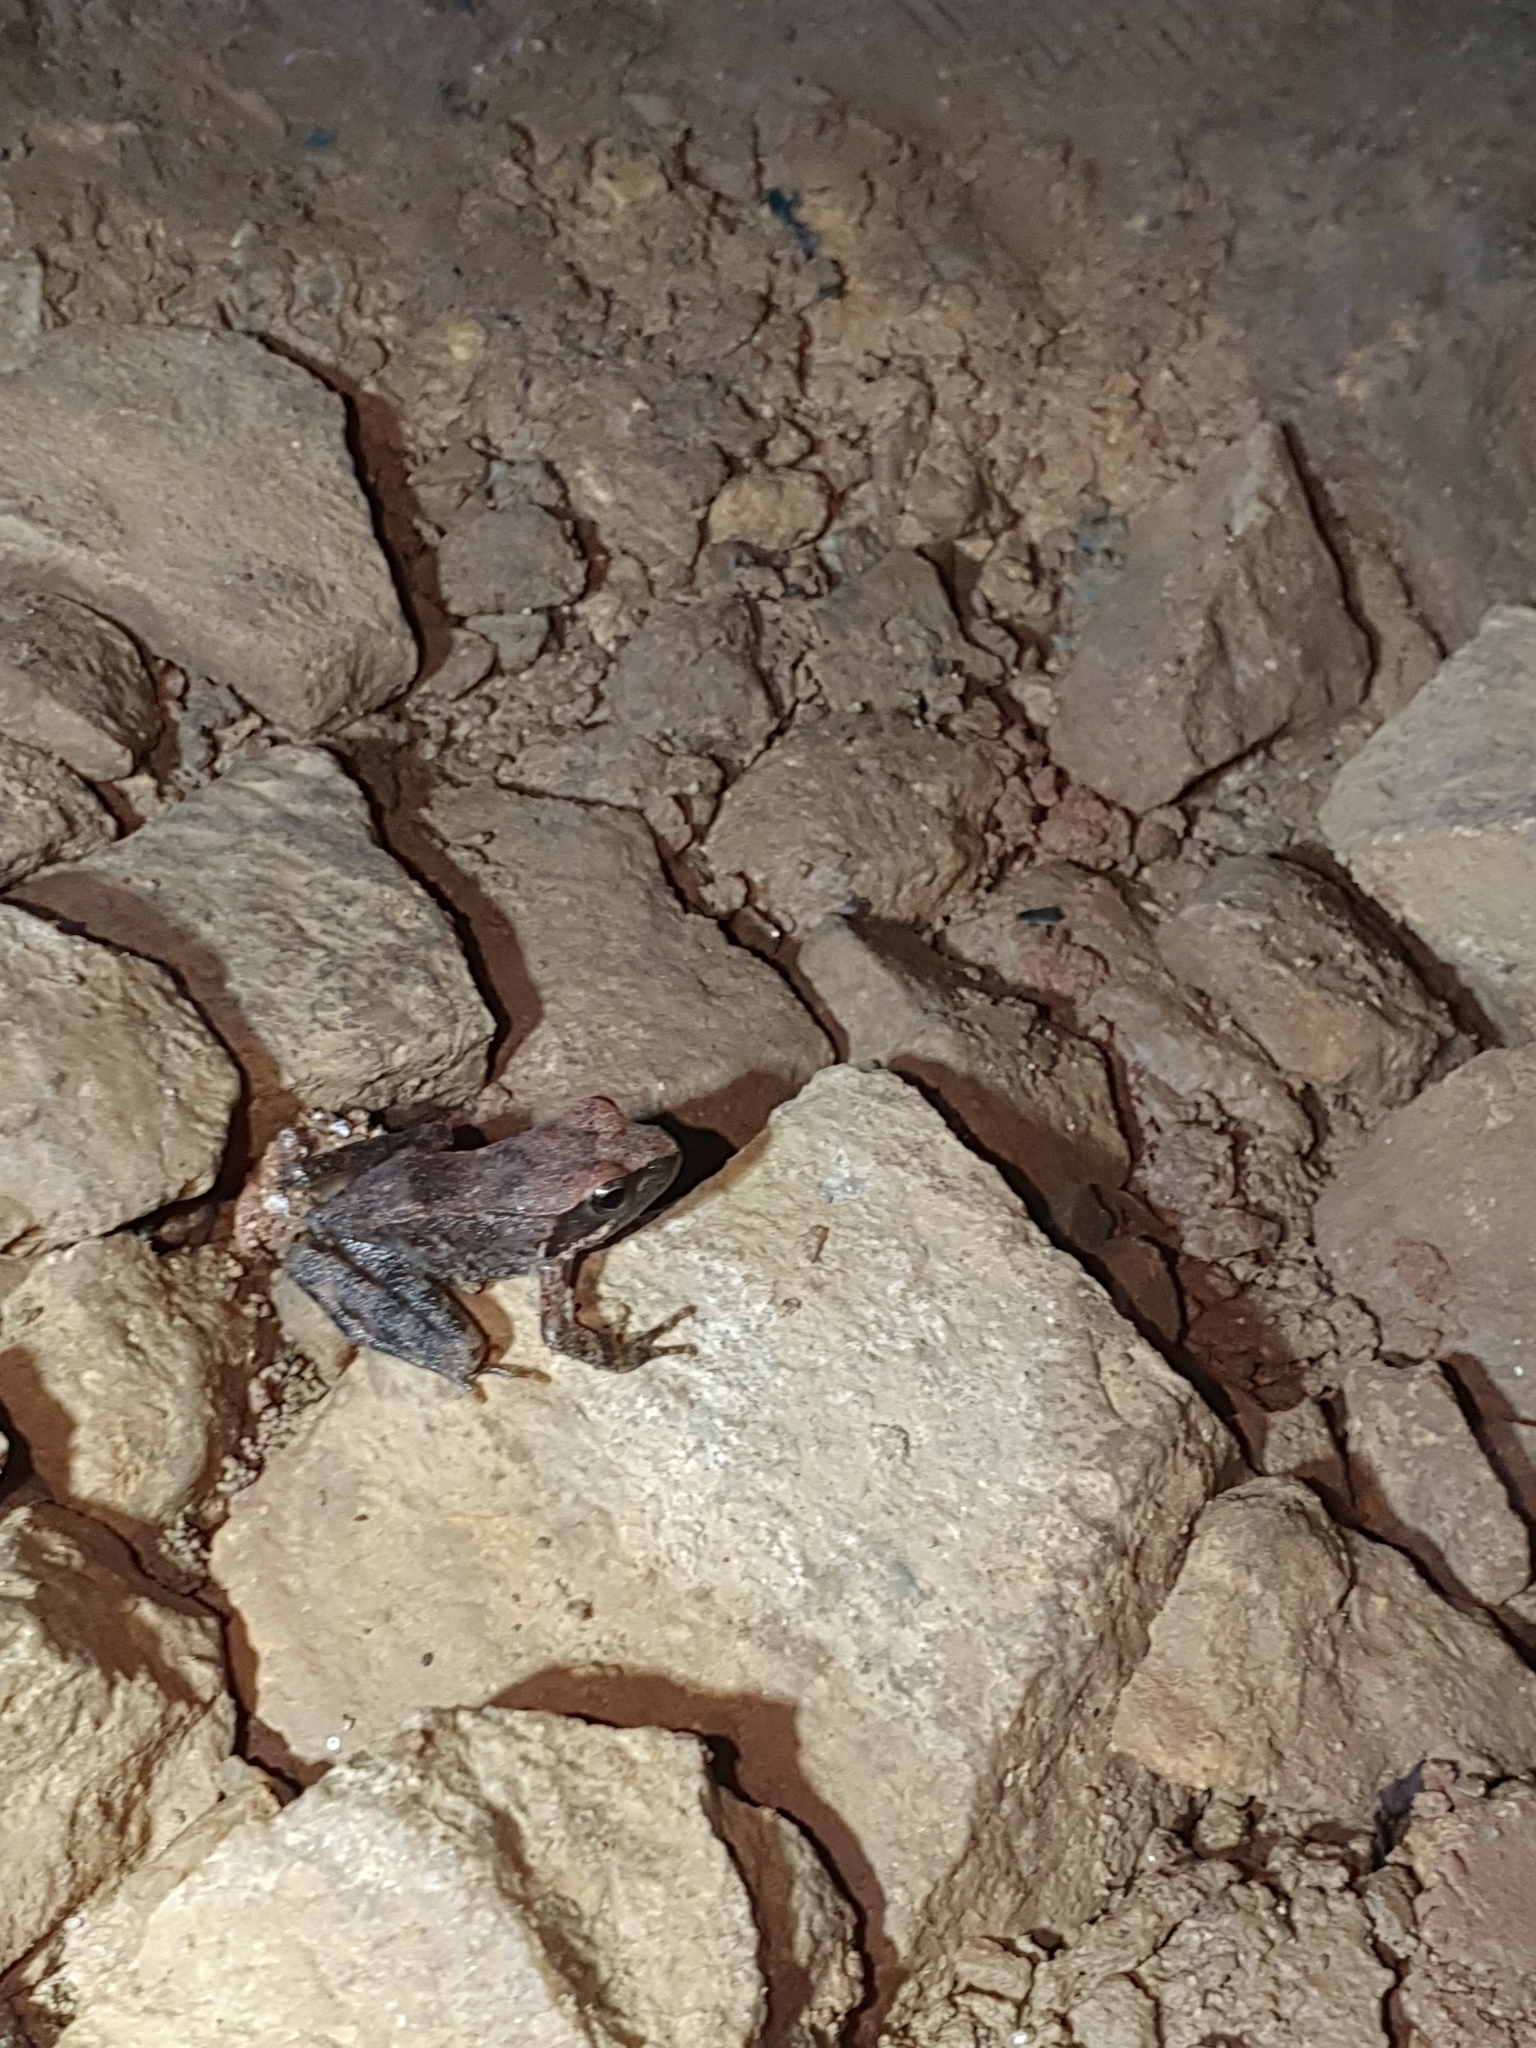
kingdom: Animalia
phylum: Chordata
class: Amphibia
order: Anura
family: Ranidae
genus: Rana
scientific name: Rana italica
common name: Italian stream frog
